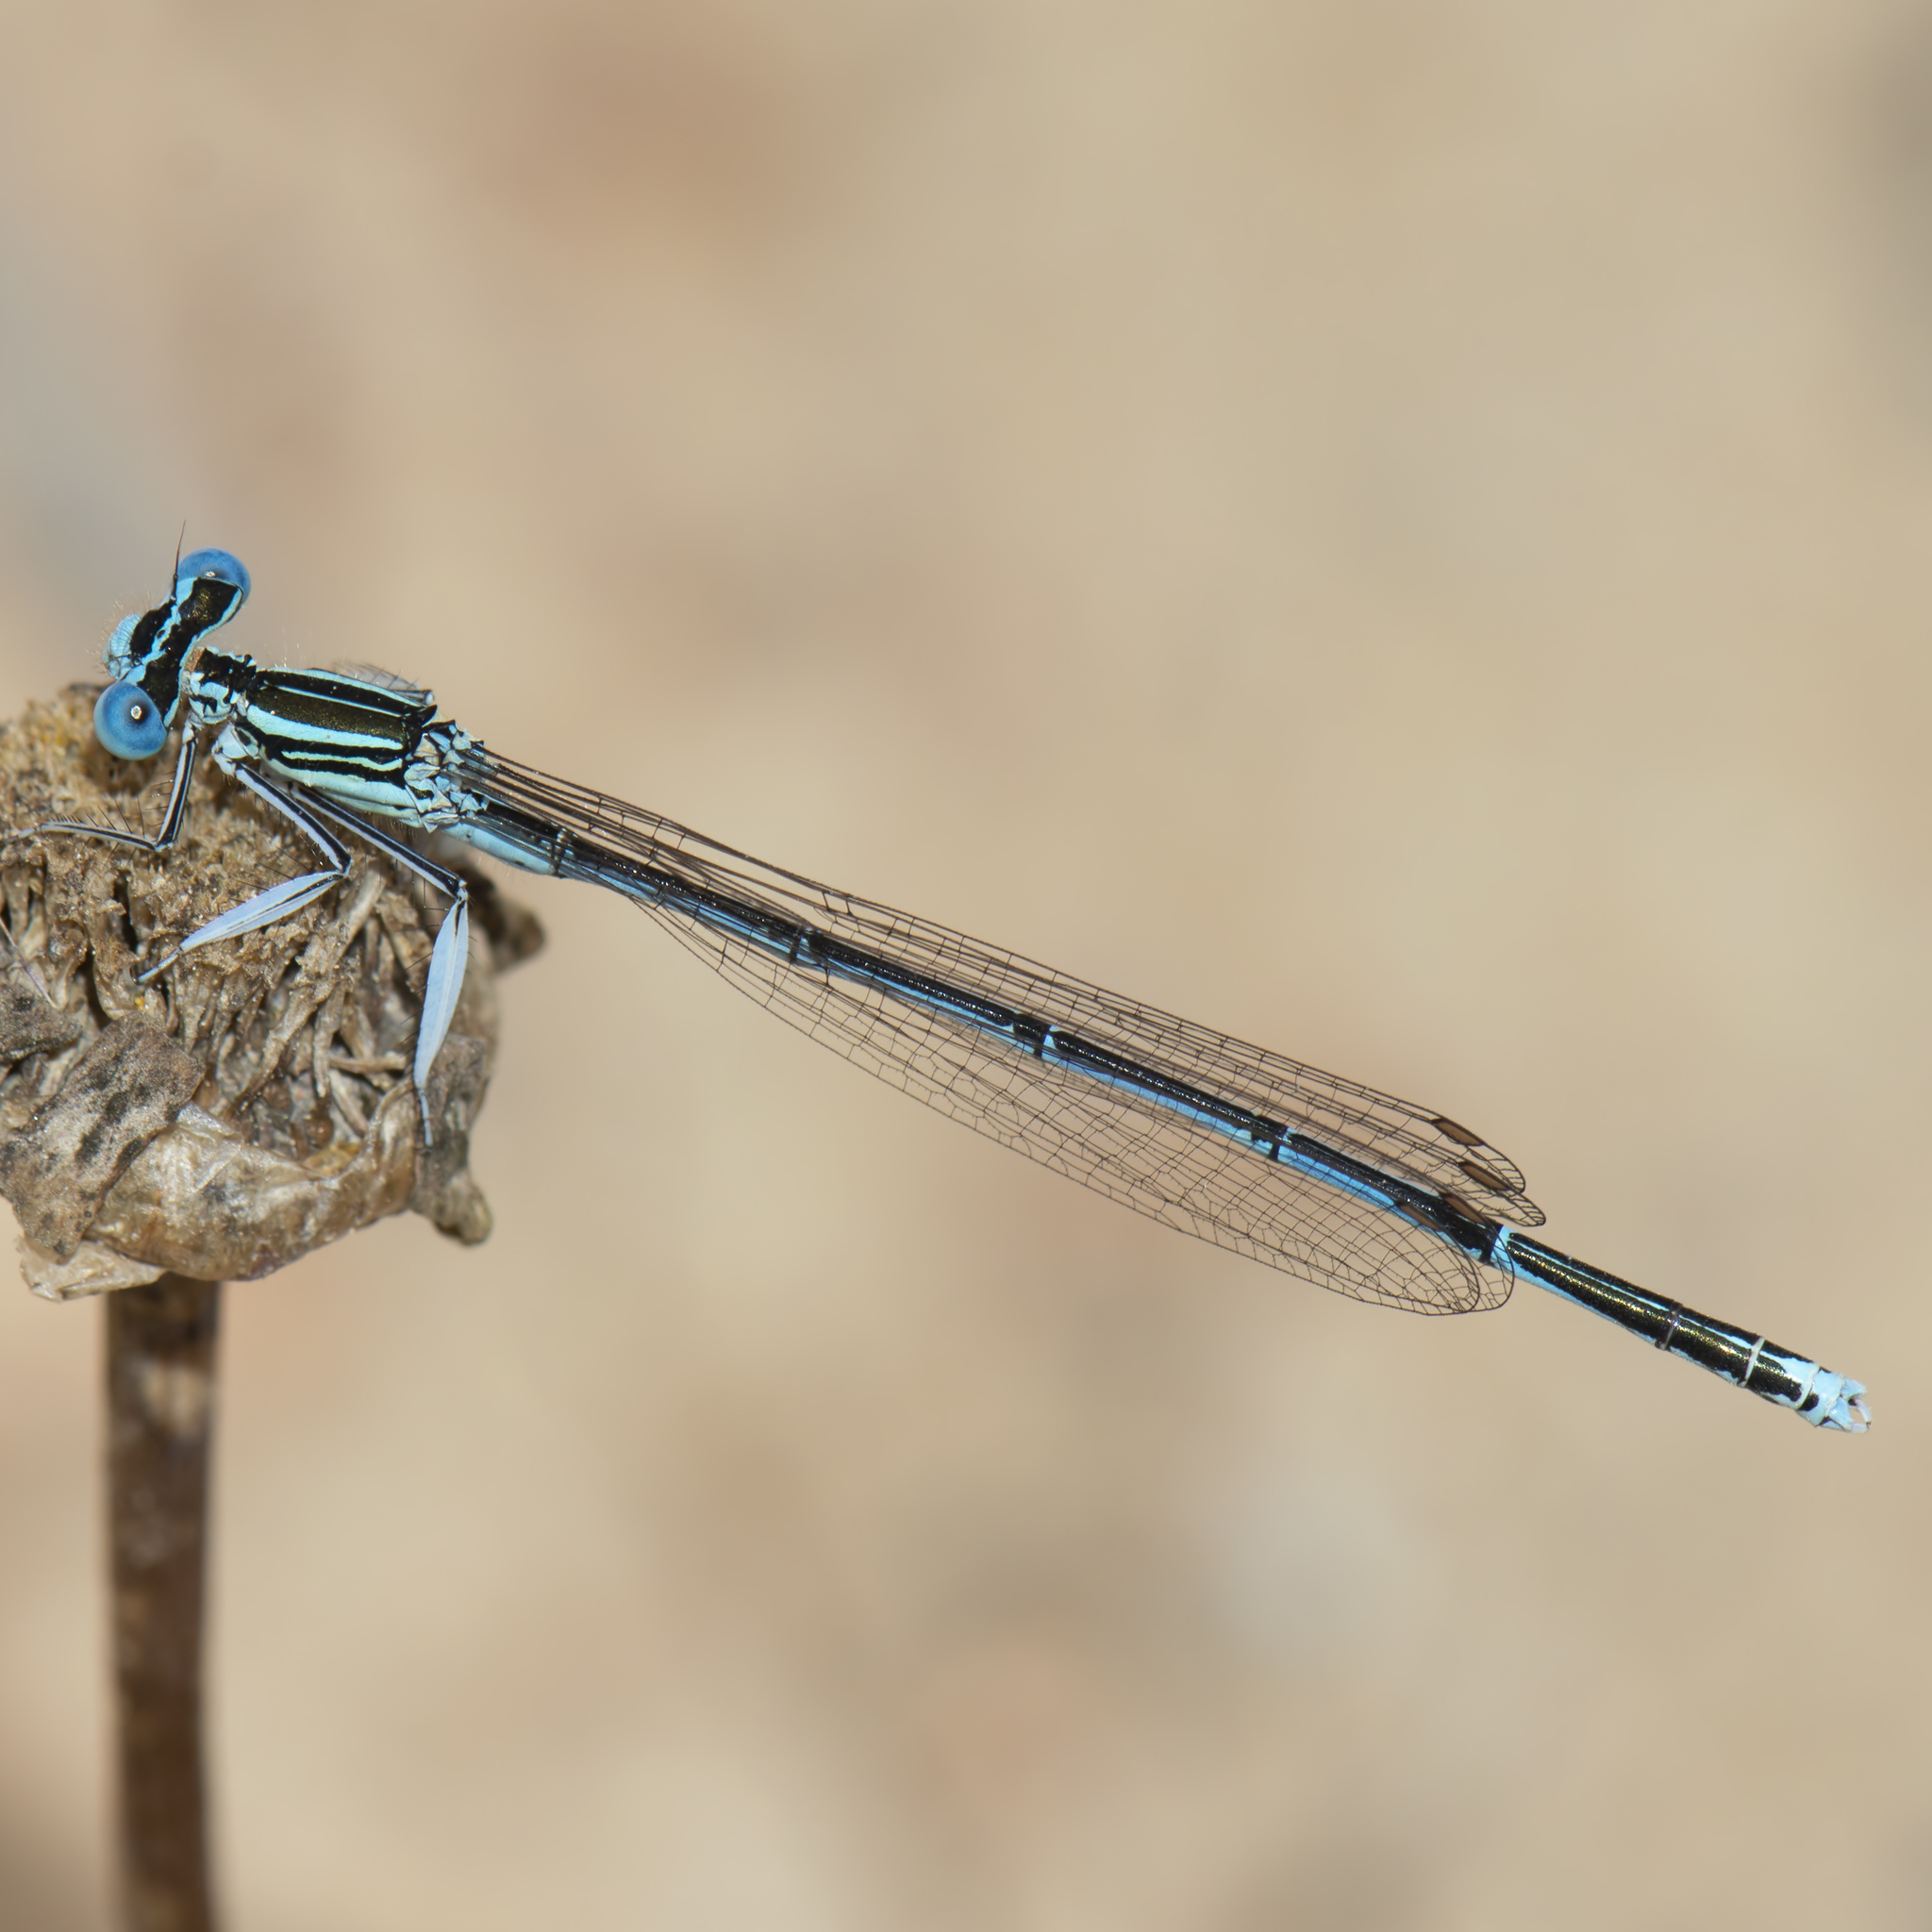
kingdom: Animalia
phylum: Arthropoda
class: Insecta
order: Odonata
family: Platycnemididae
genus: Platycnemis
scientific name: Platycnemis pennipes
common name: White-legged damselfly
